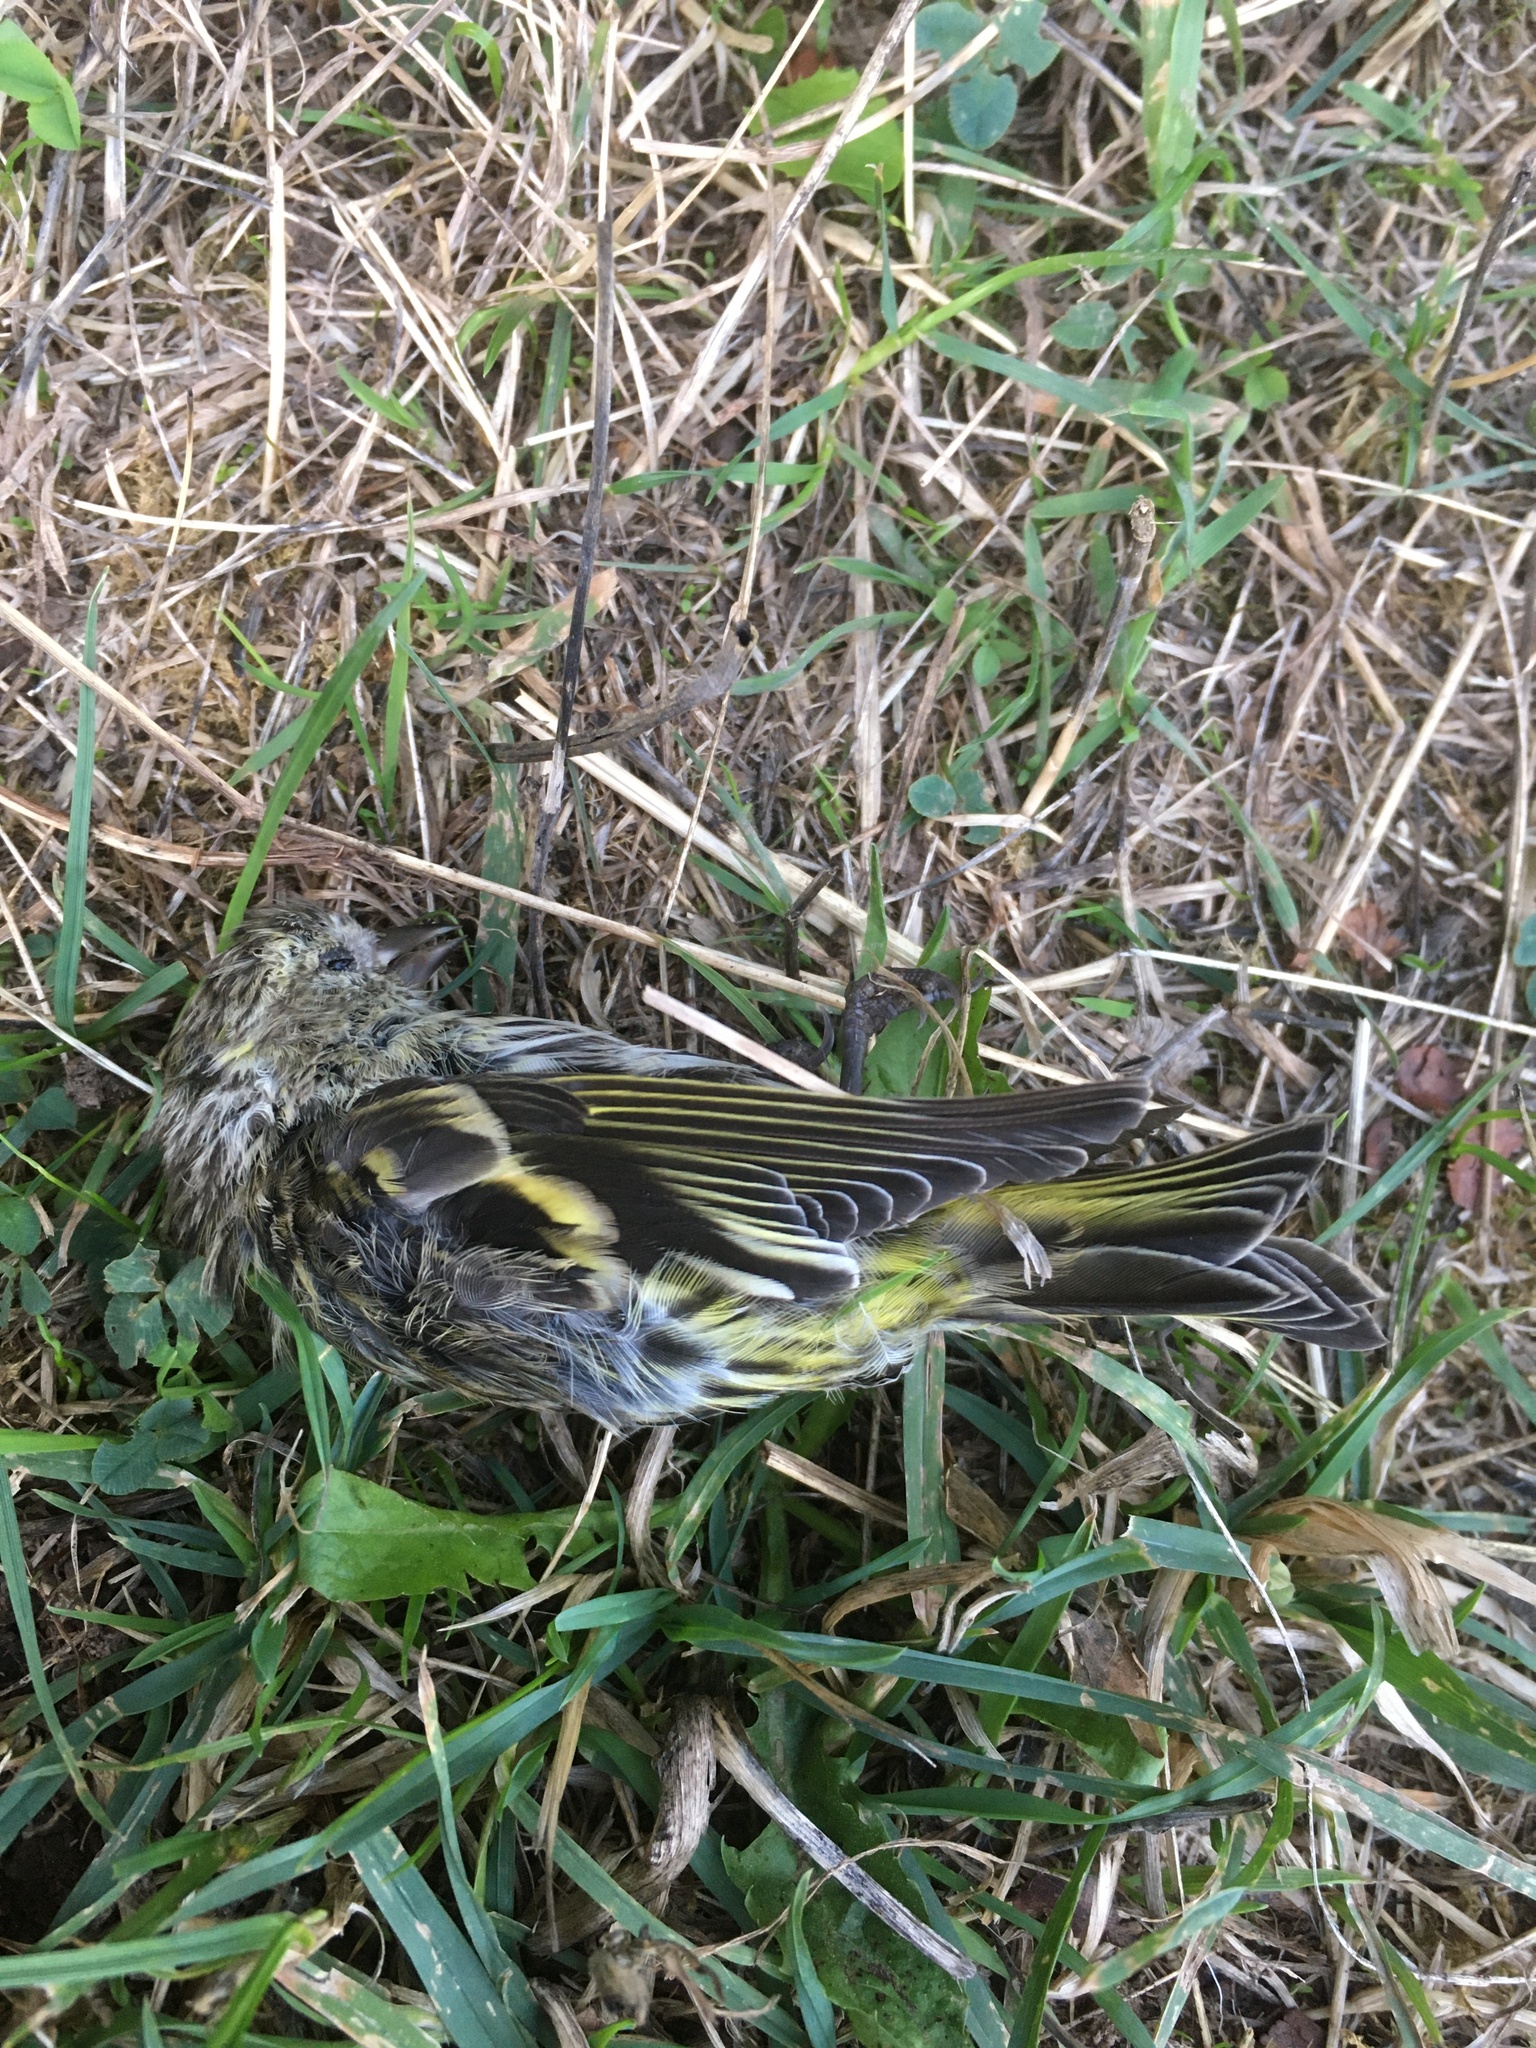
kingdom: Animalia
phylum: Chordata
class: Aves
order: Passeriformes
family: Fringillidae
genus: Spinus
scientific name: Spinus spinus
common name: Eurasian siskin
